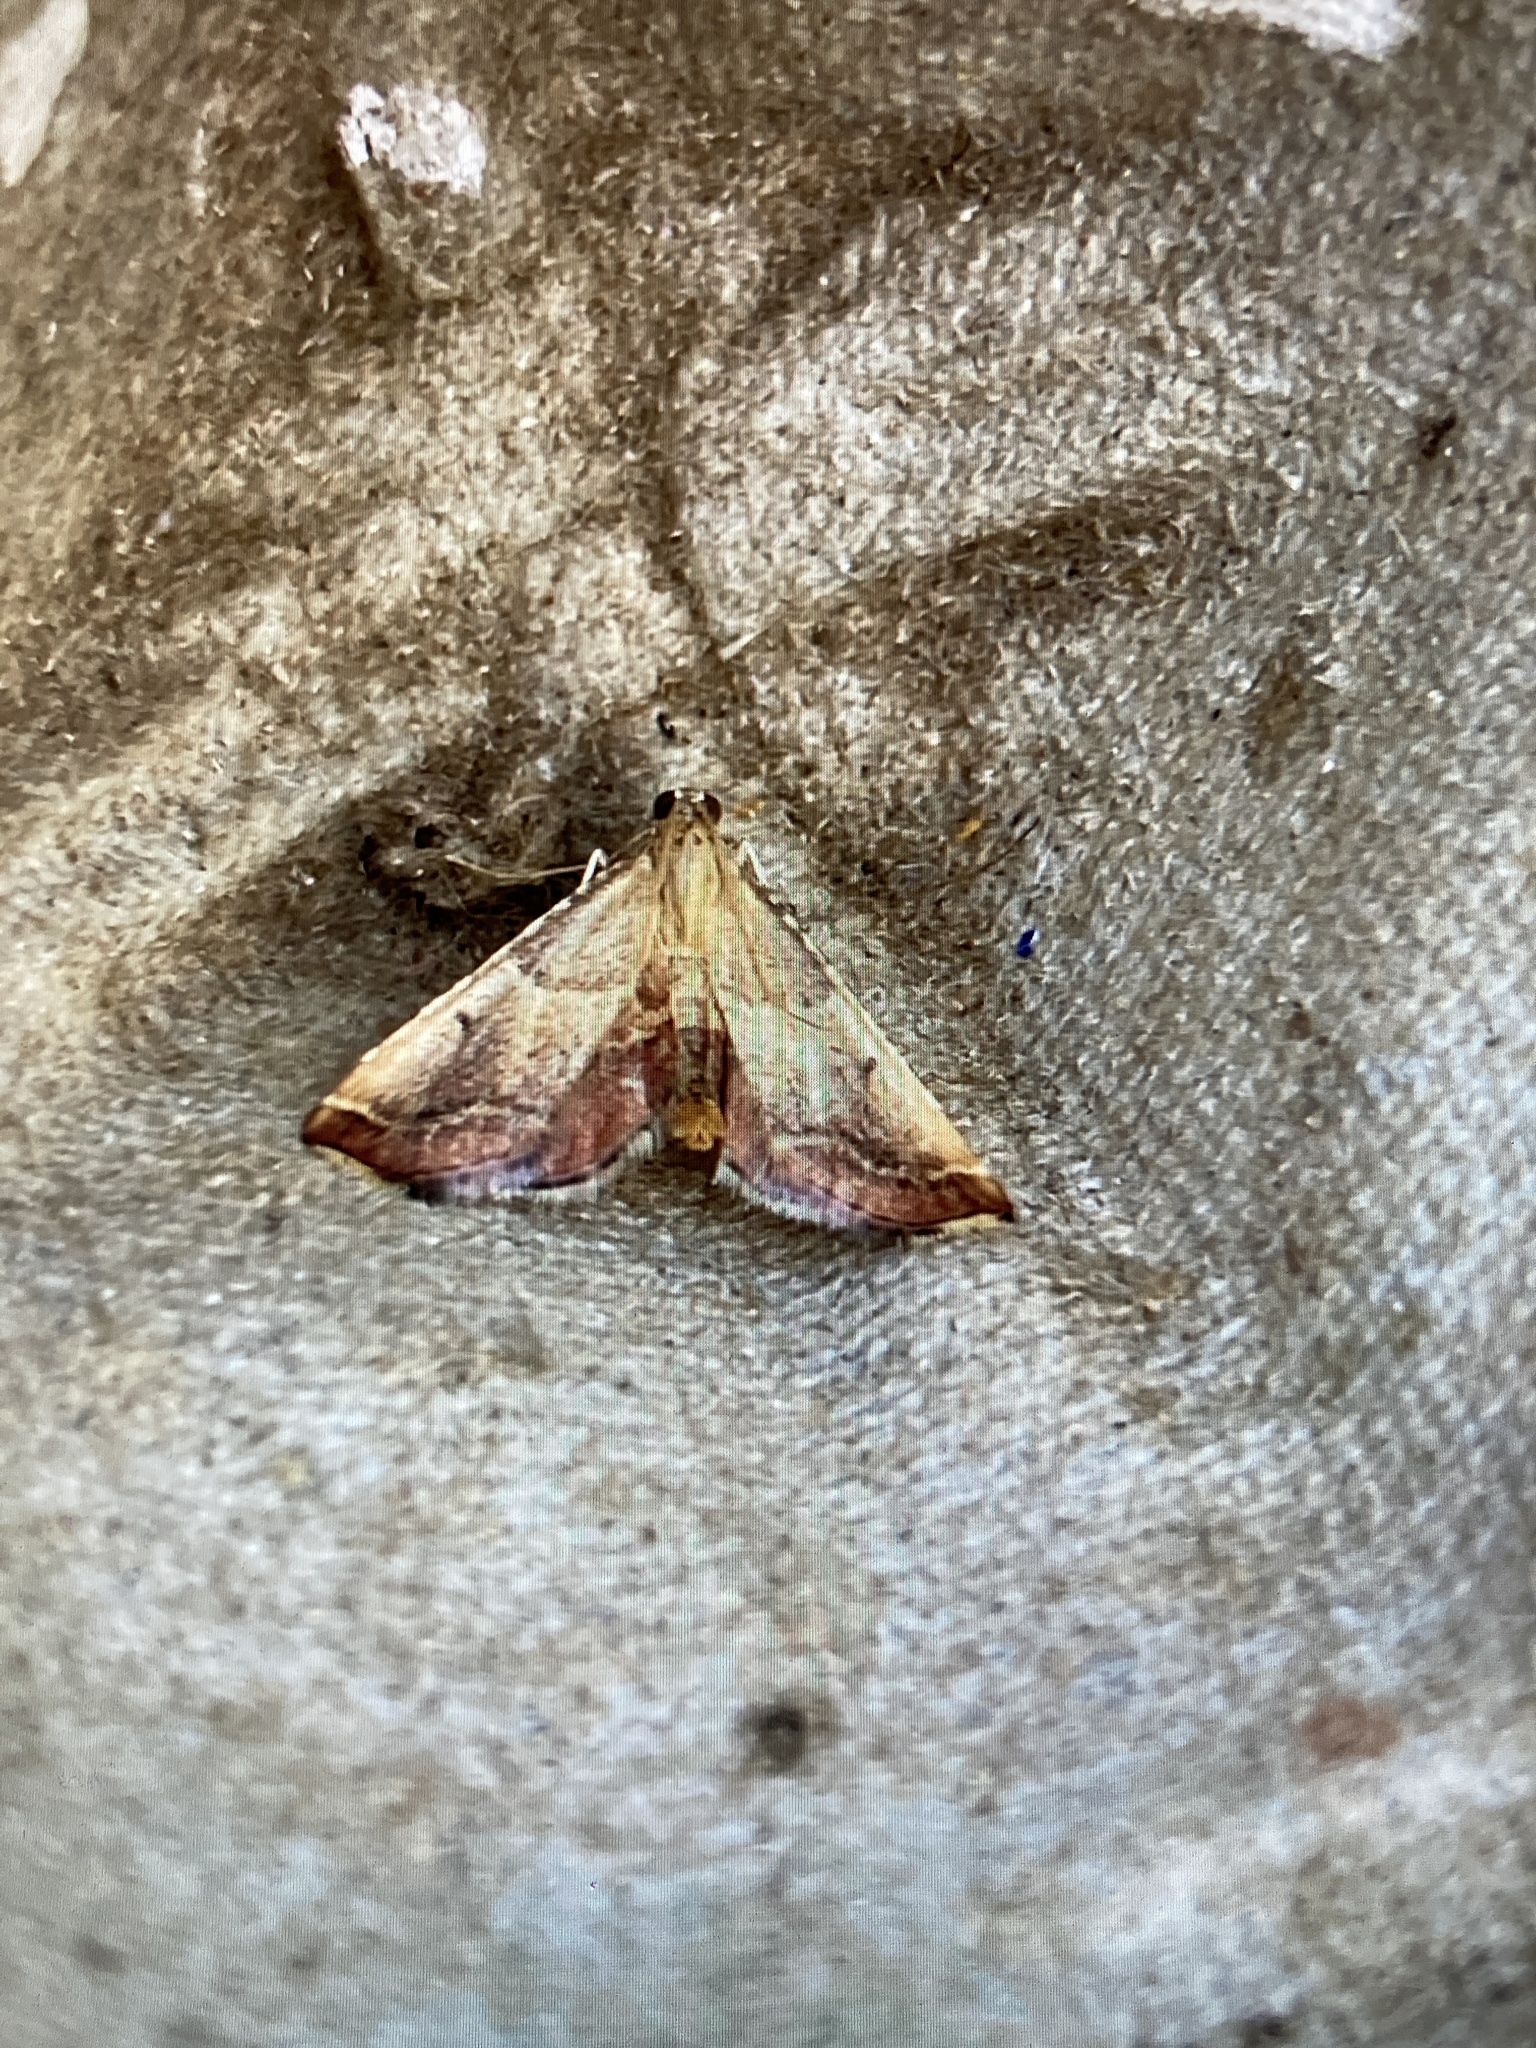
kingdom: Animalia
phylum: Arthropoda
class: Insecta
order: Lepidoptera
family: Pyralidae
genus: Endotricha
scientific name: Endotricha flammealis
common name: Rosy tabby
